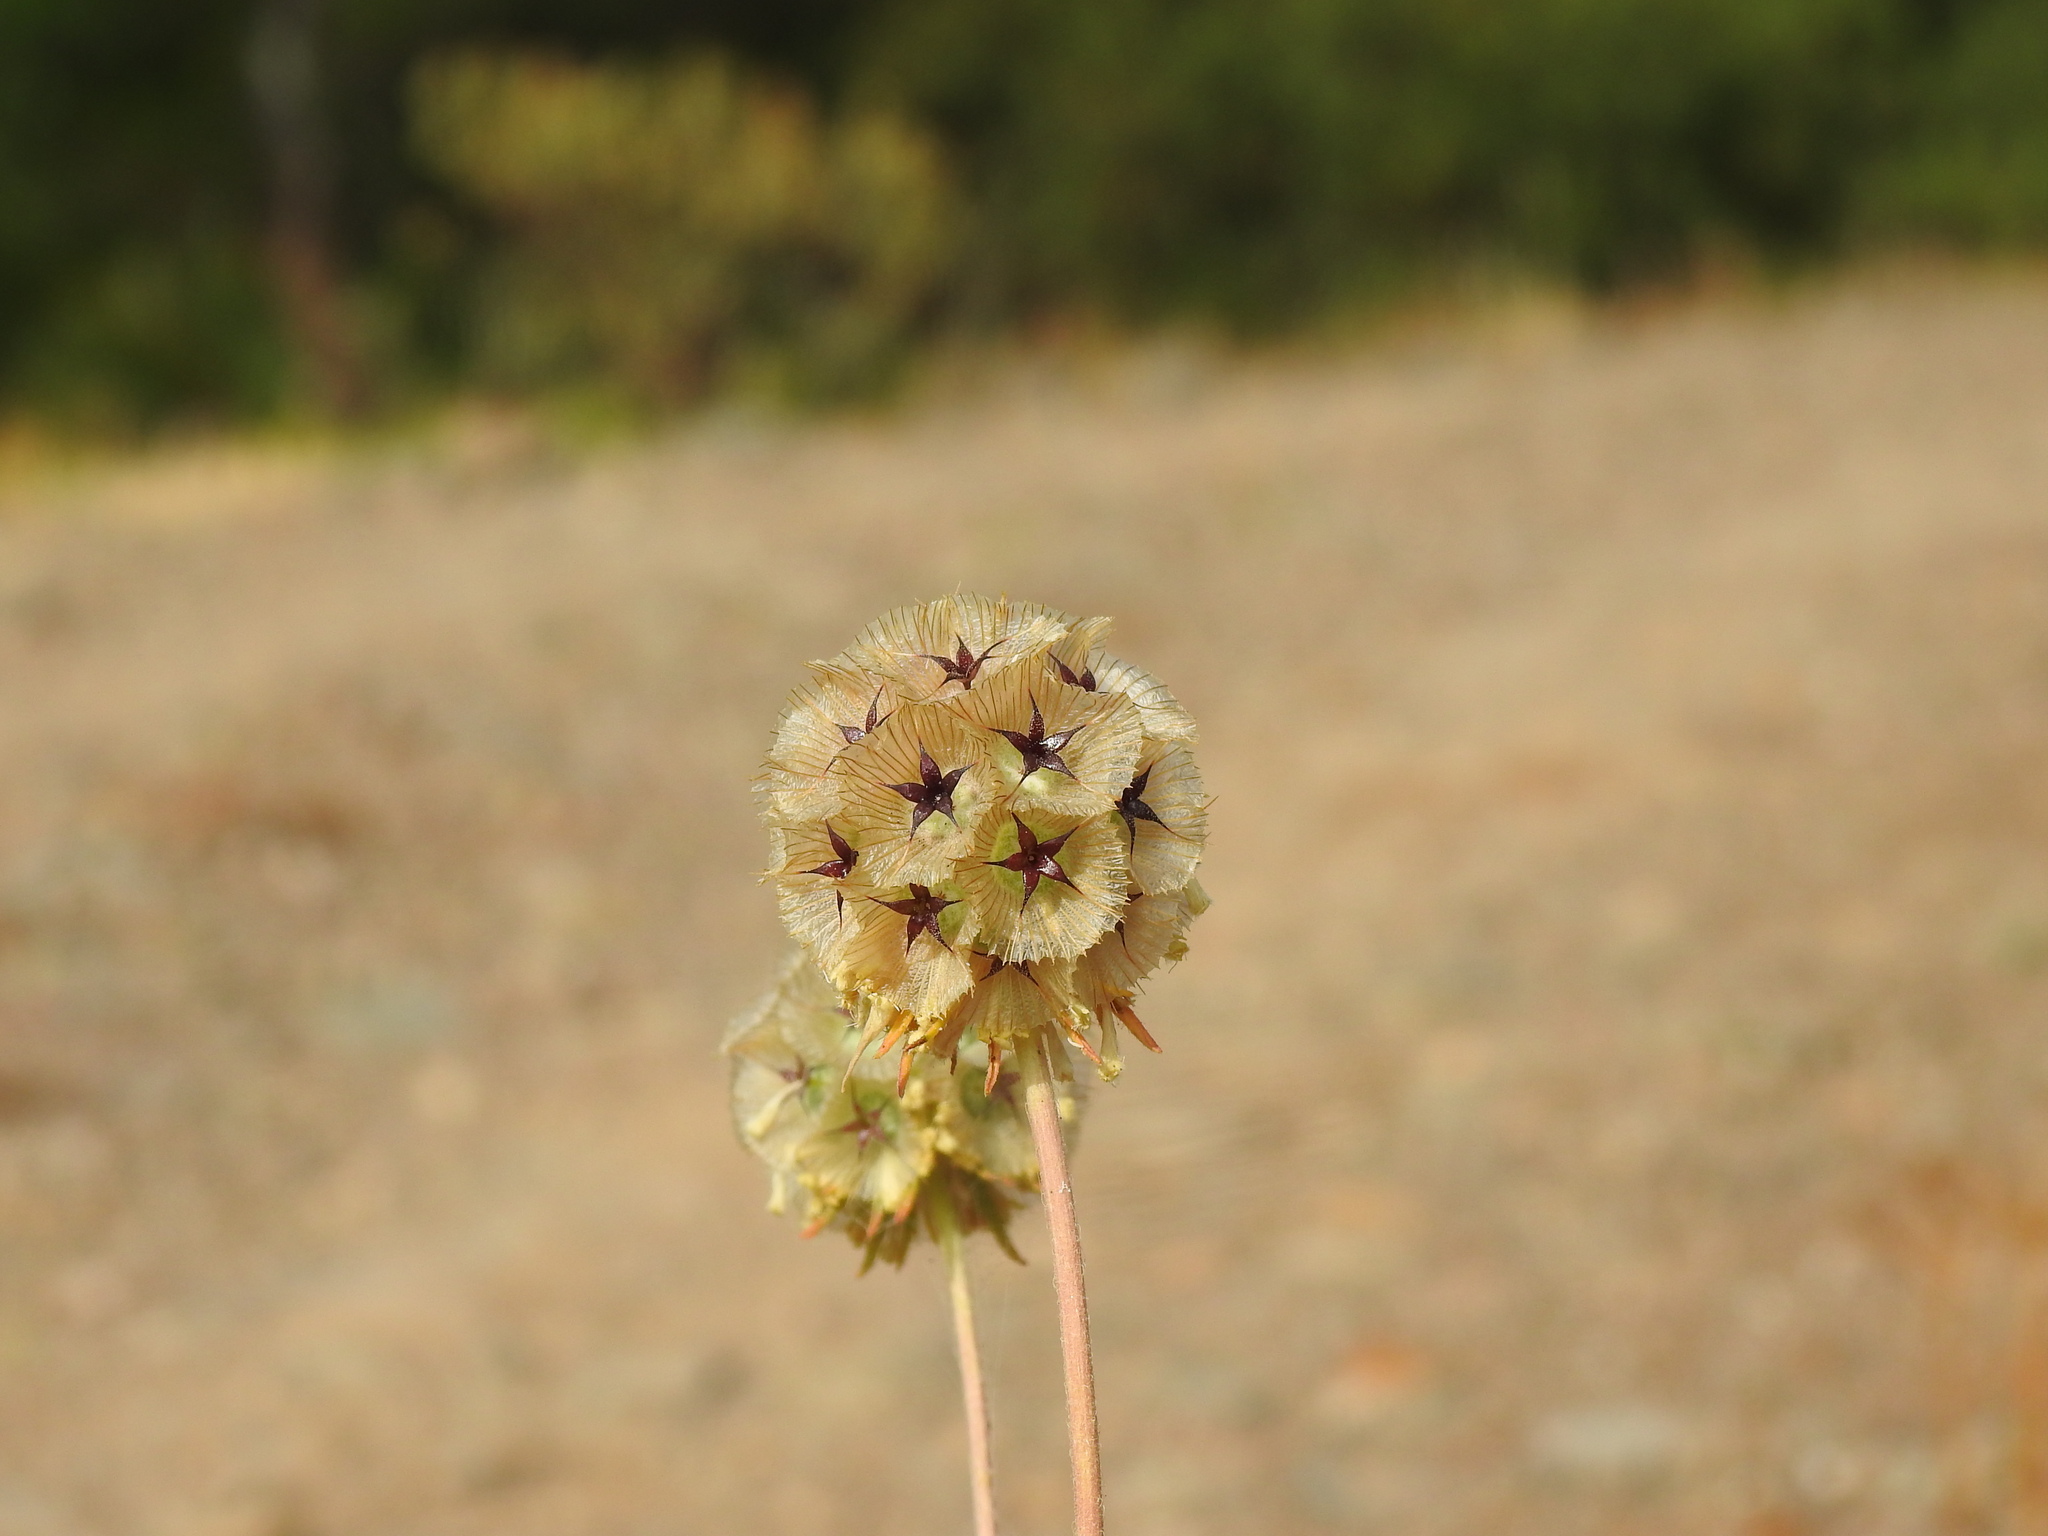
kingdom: Plantae
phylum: Tracheophyta
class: Magnoliopsida
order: Dipsacales
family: Caprifoliaceae
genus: Lomelosia
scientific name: Lomelosia simplex
